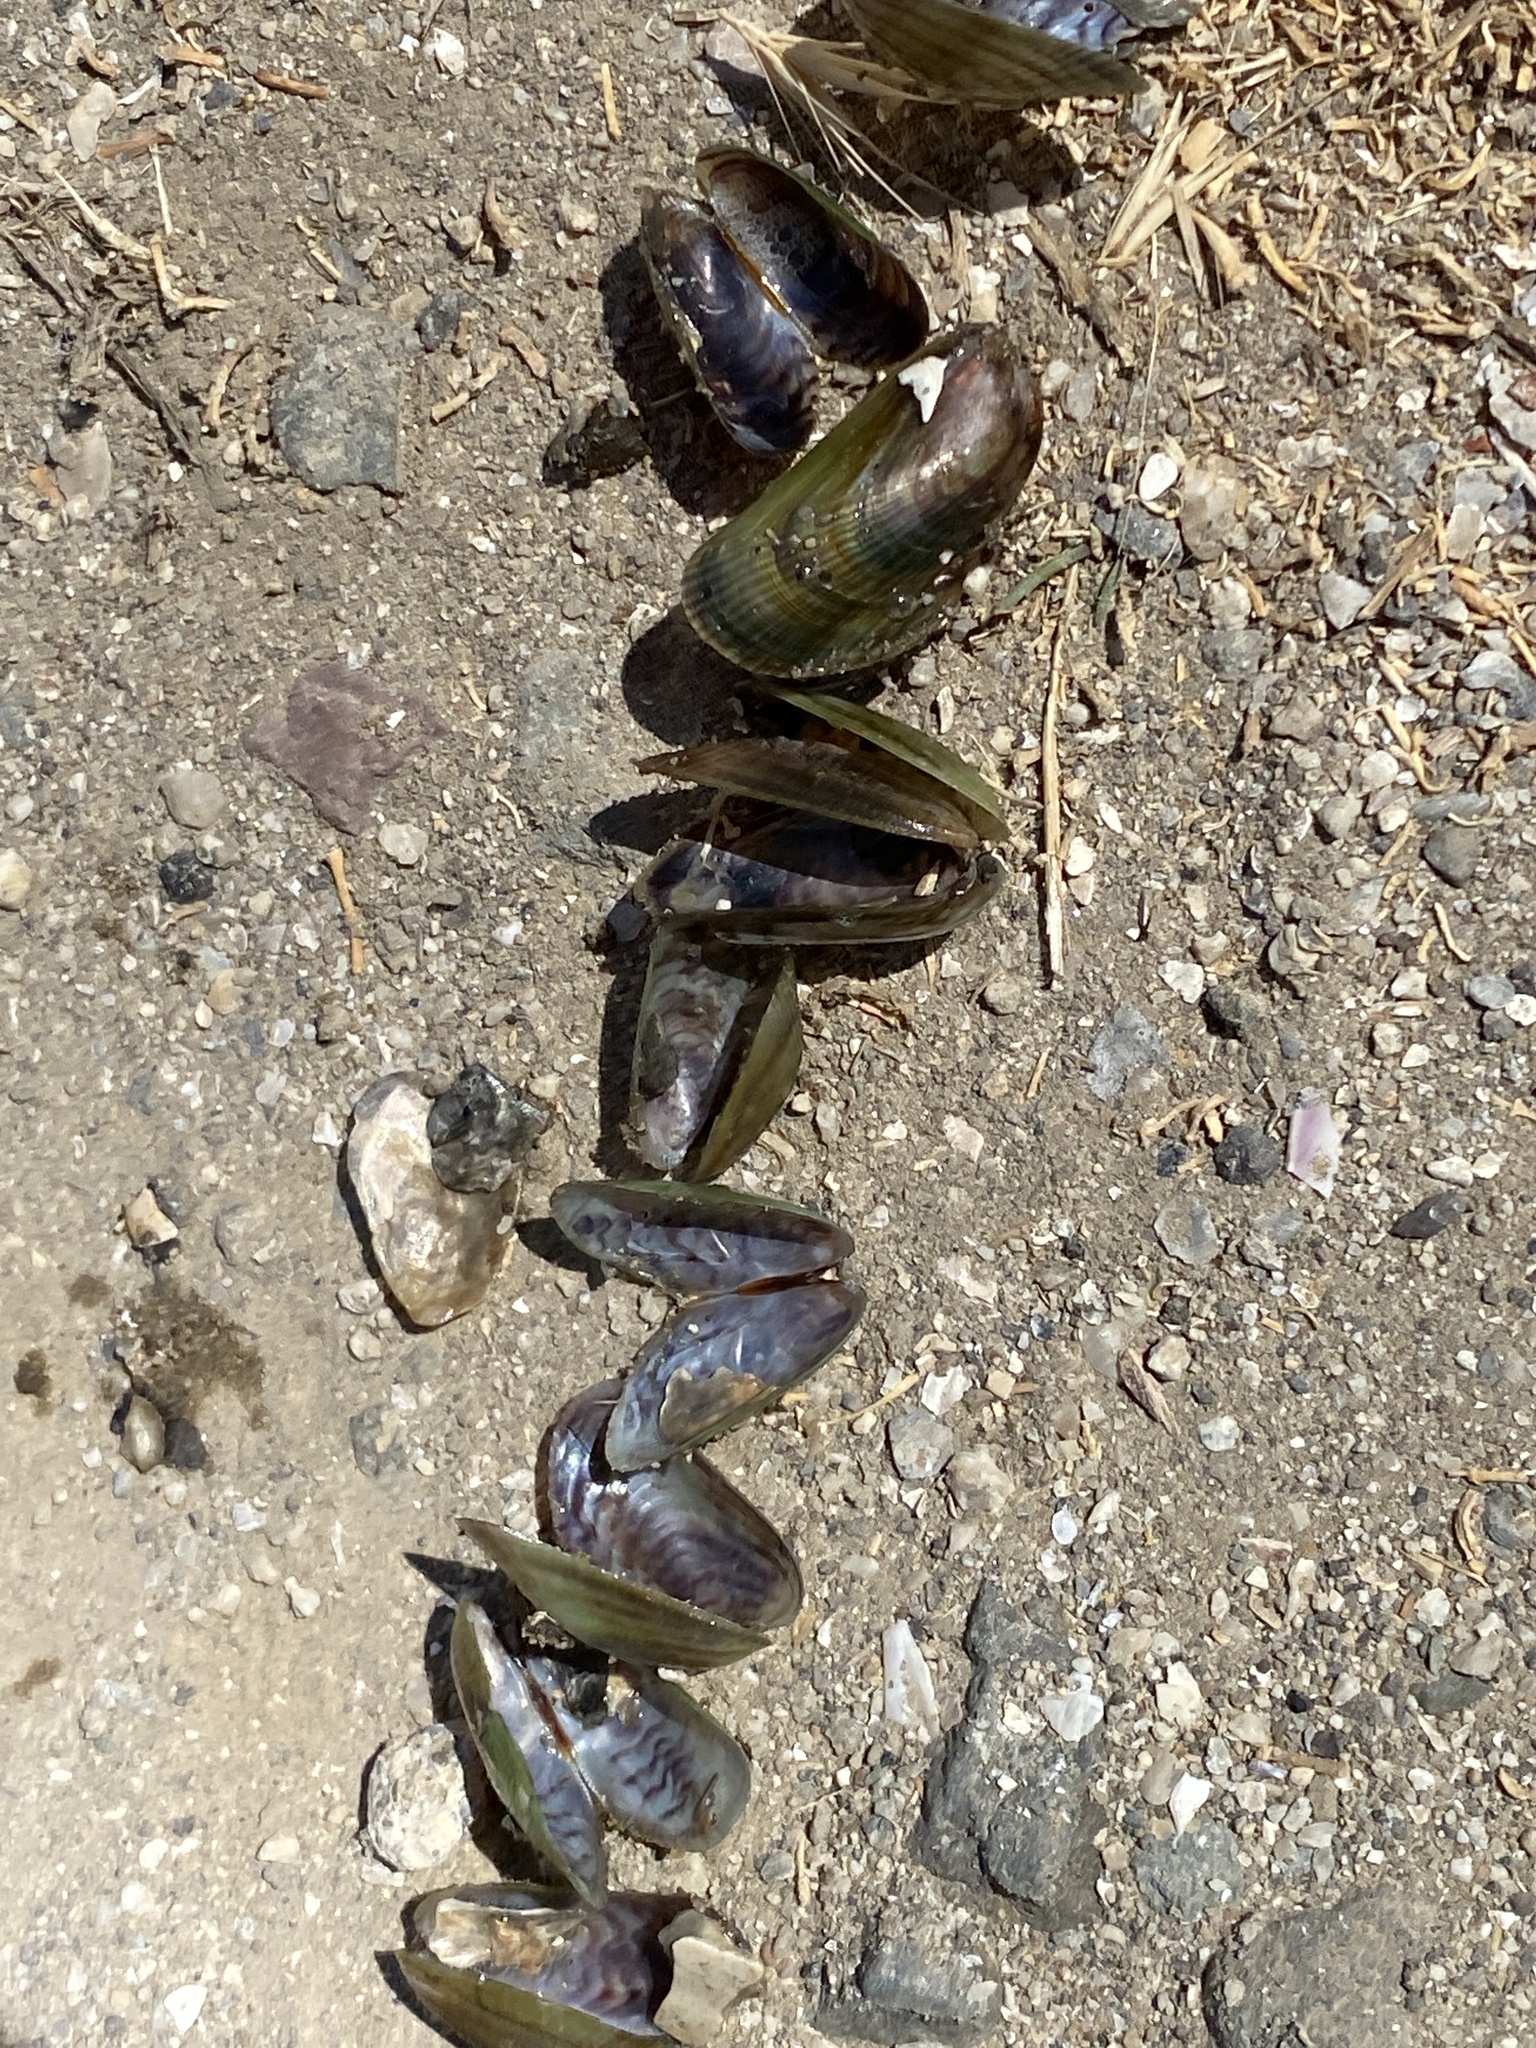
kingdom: Animalia
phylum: Mollusca
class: Bivalvia
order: Mytilida
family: Mytilidae
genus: Arcuatula
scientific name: Arcuatula senhousia
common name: Asian mussel
